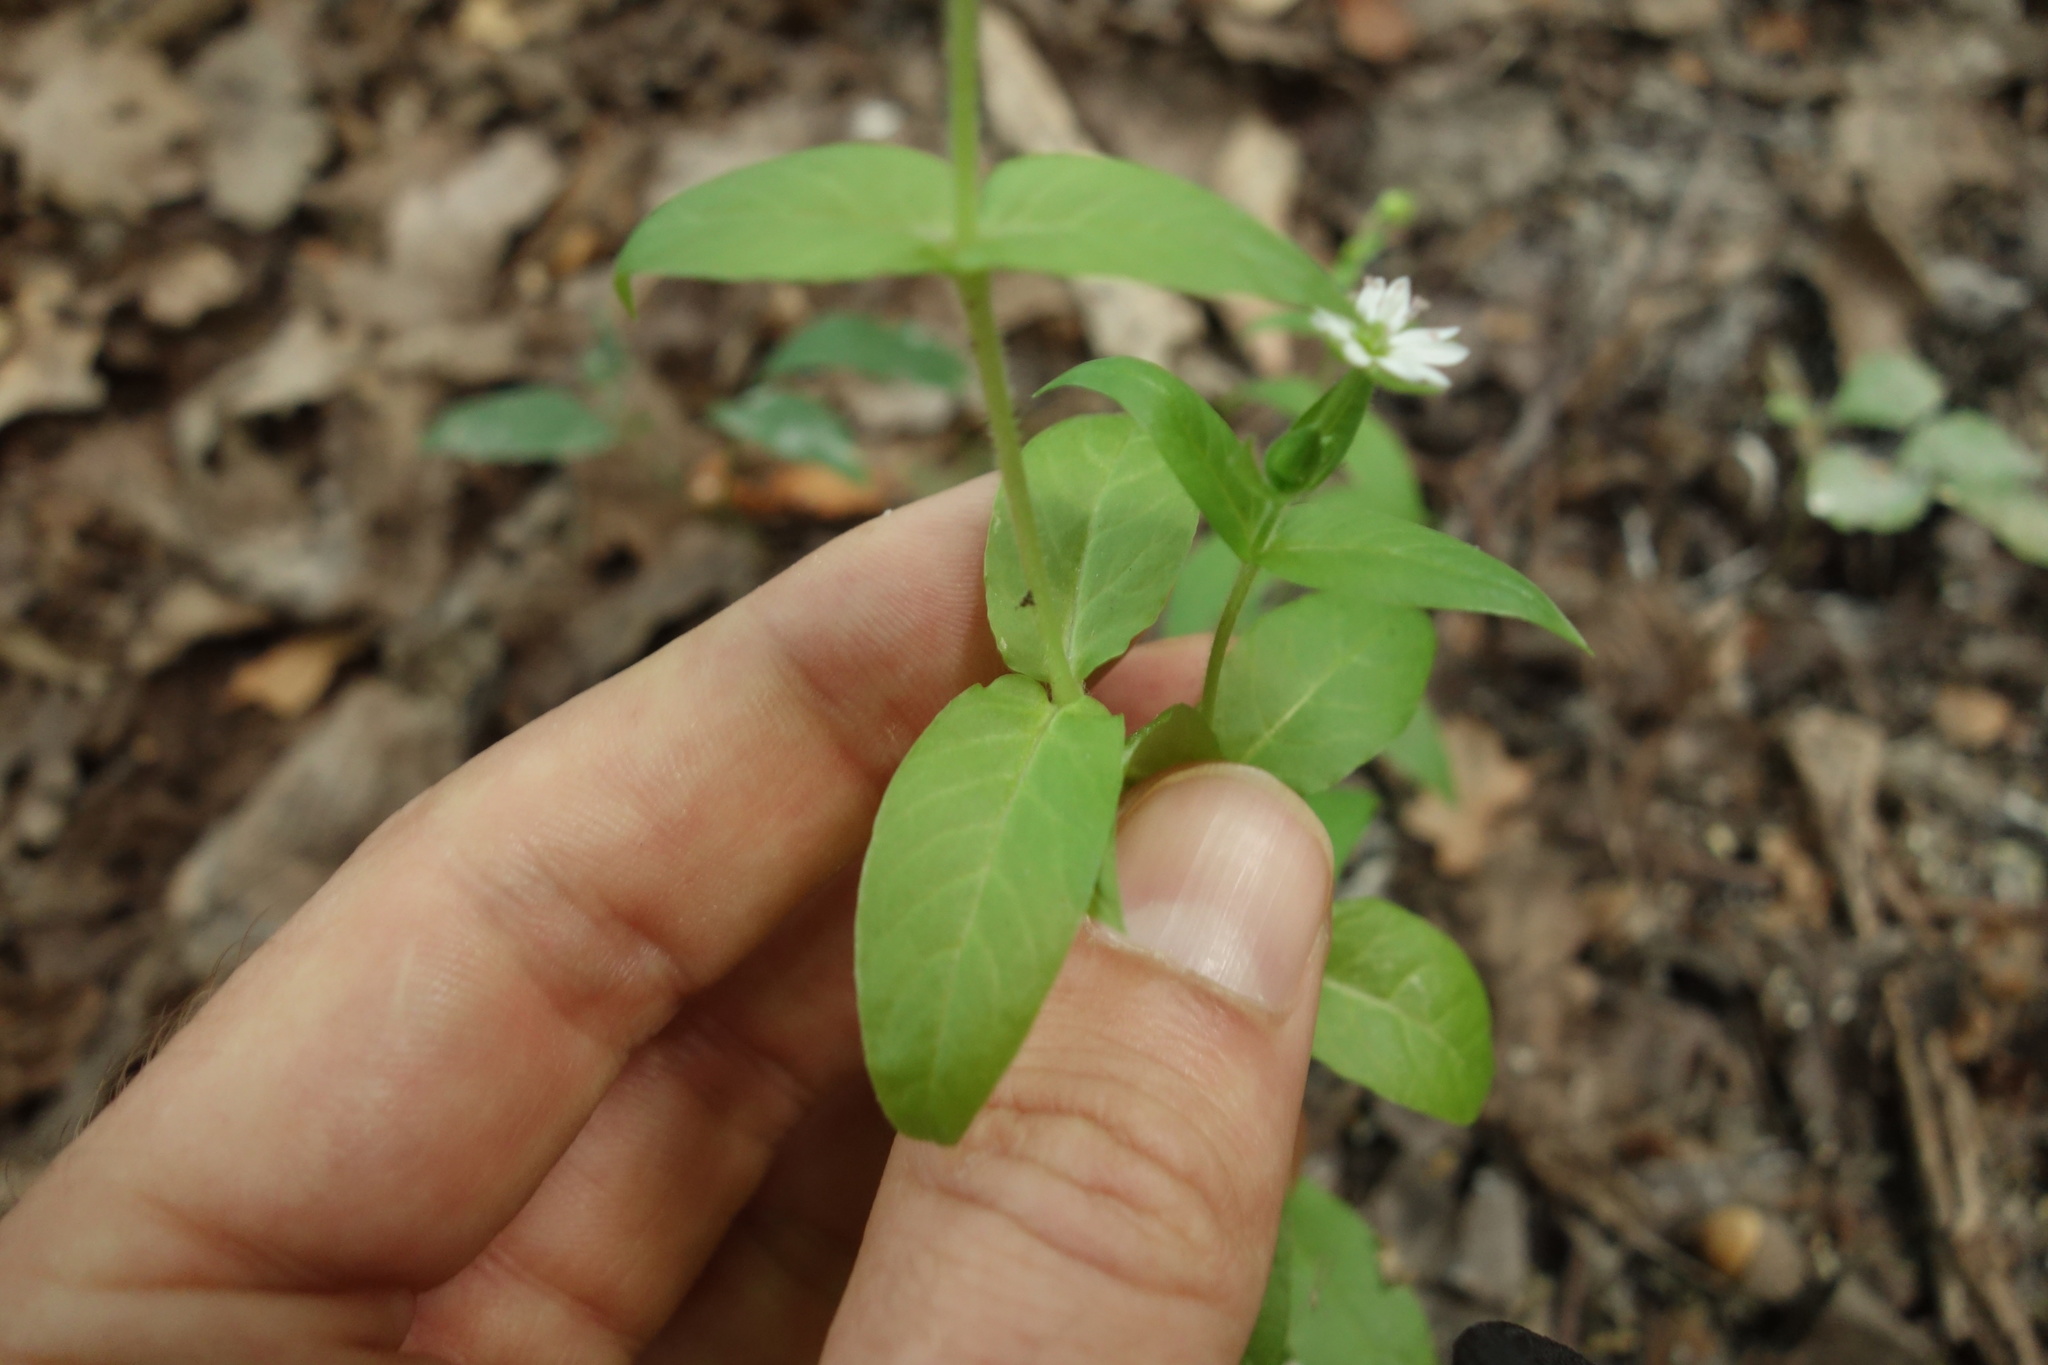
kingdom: Plantae
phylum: Tracheophyta
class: Magnoliopsida
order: Caryophyllales
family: Caryophyllaceae
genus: Stellaria
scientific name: Stellaria aquatica
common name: Water chickweed
